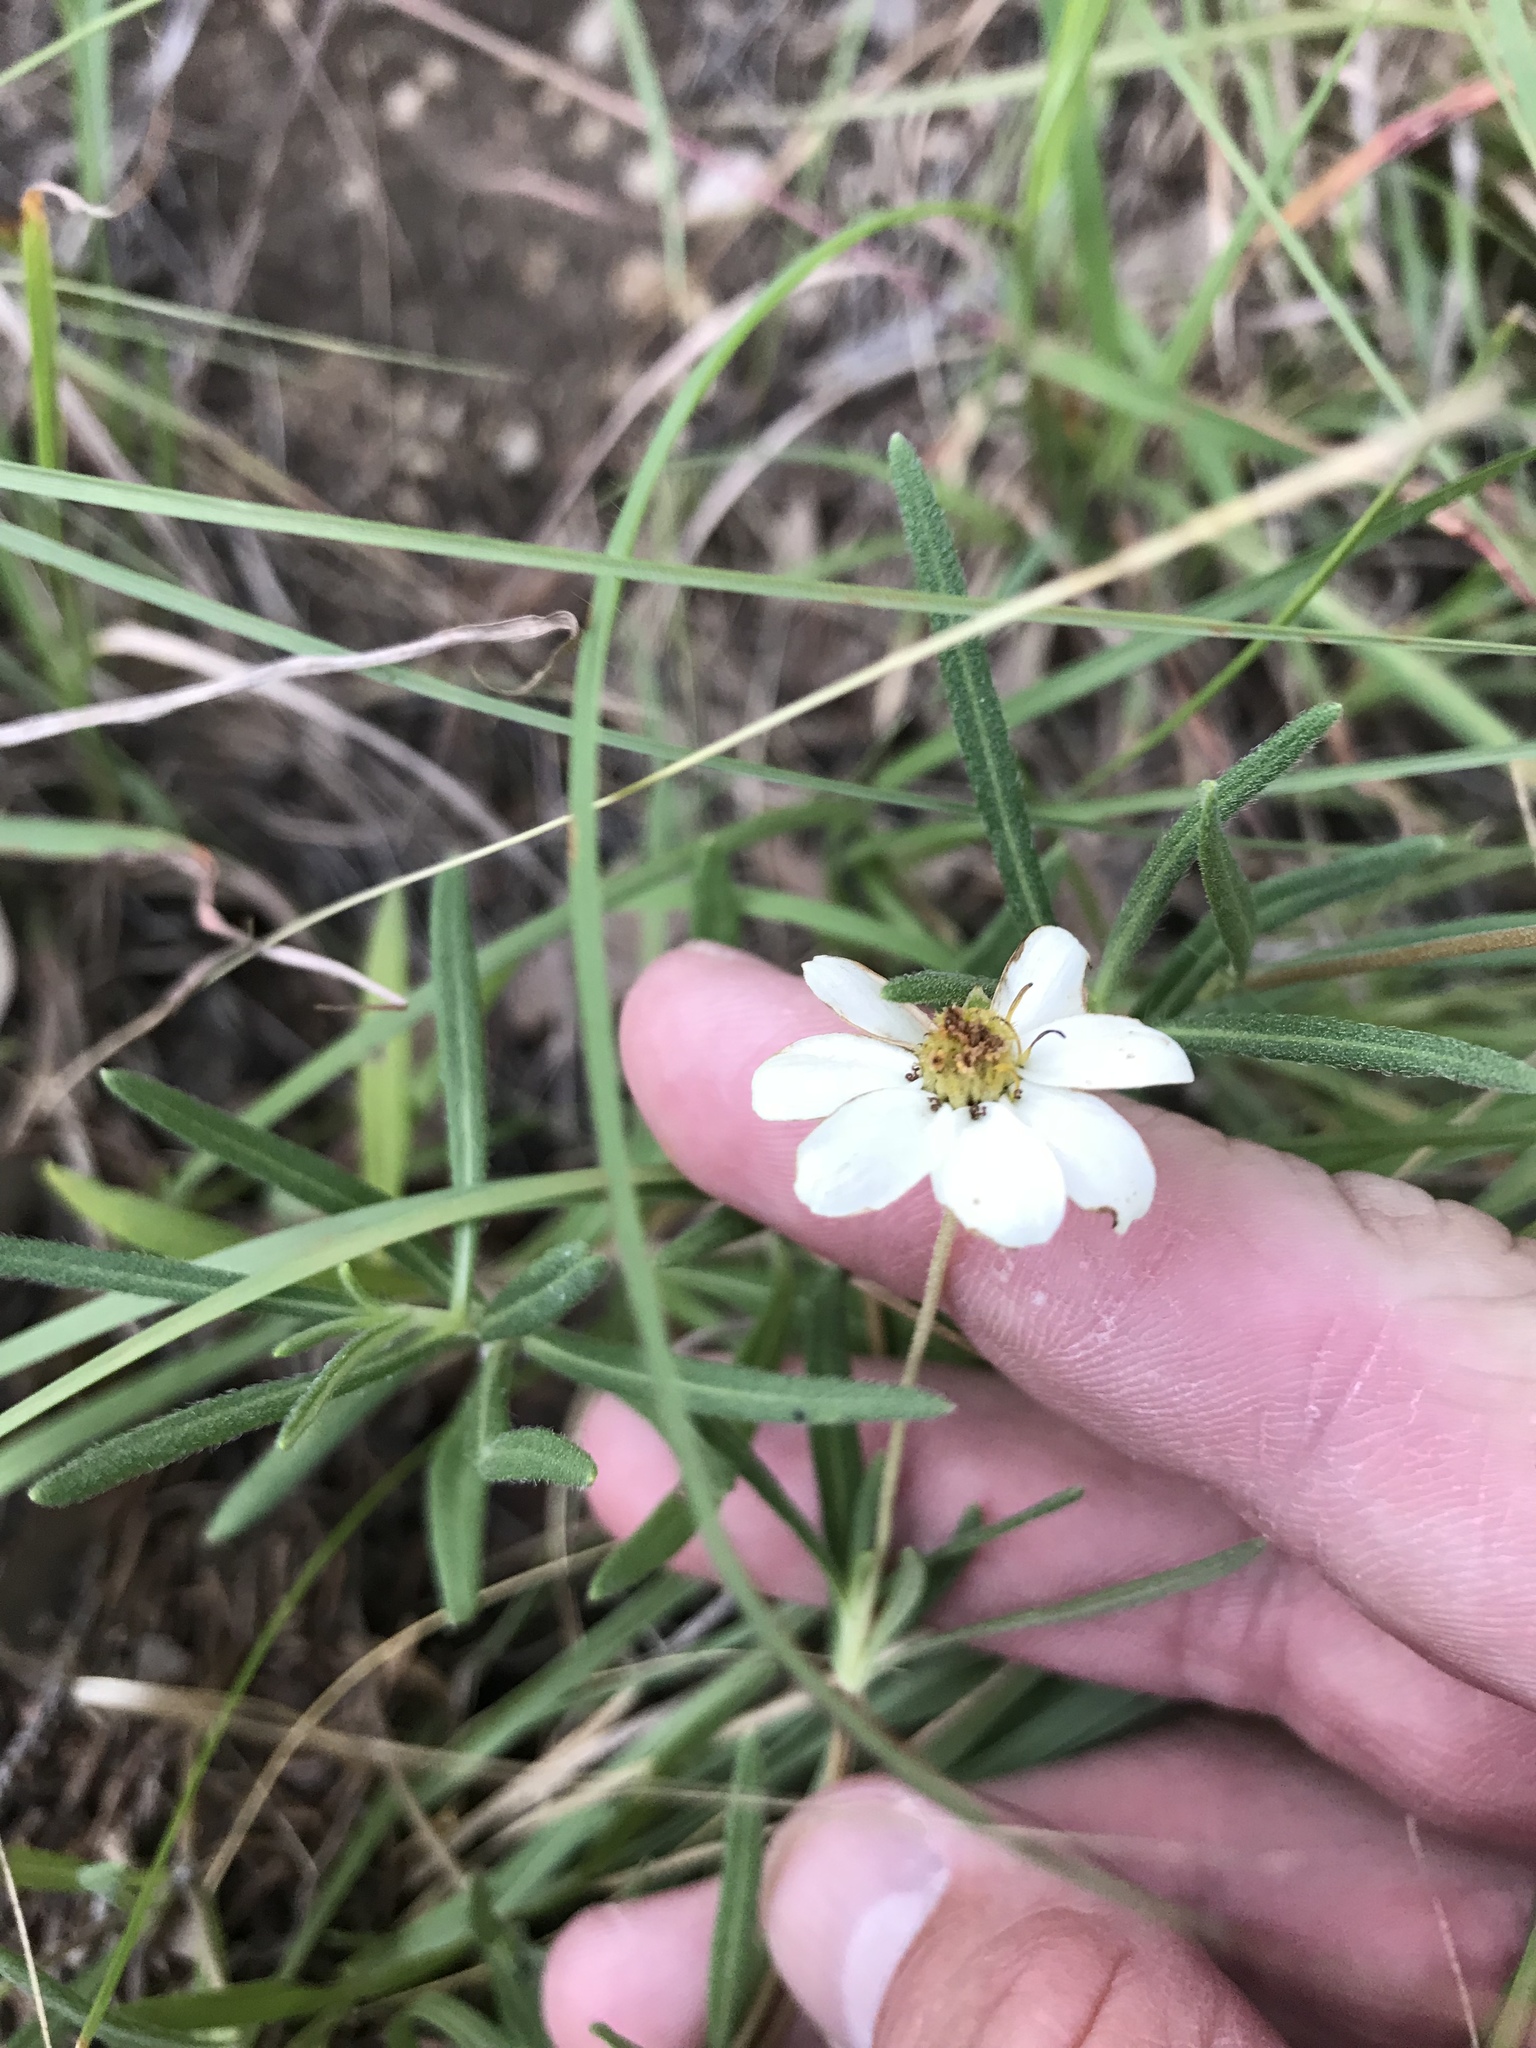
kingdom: Plantae
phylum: Tracheophyta
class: Magnoliopsida
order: Asterales
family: Asteraceae
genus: Melampodium
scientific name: Melampodium leucanthum
